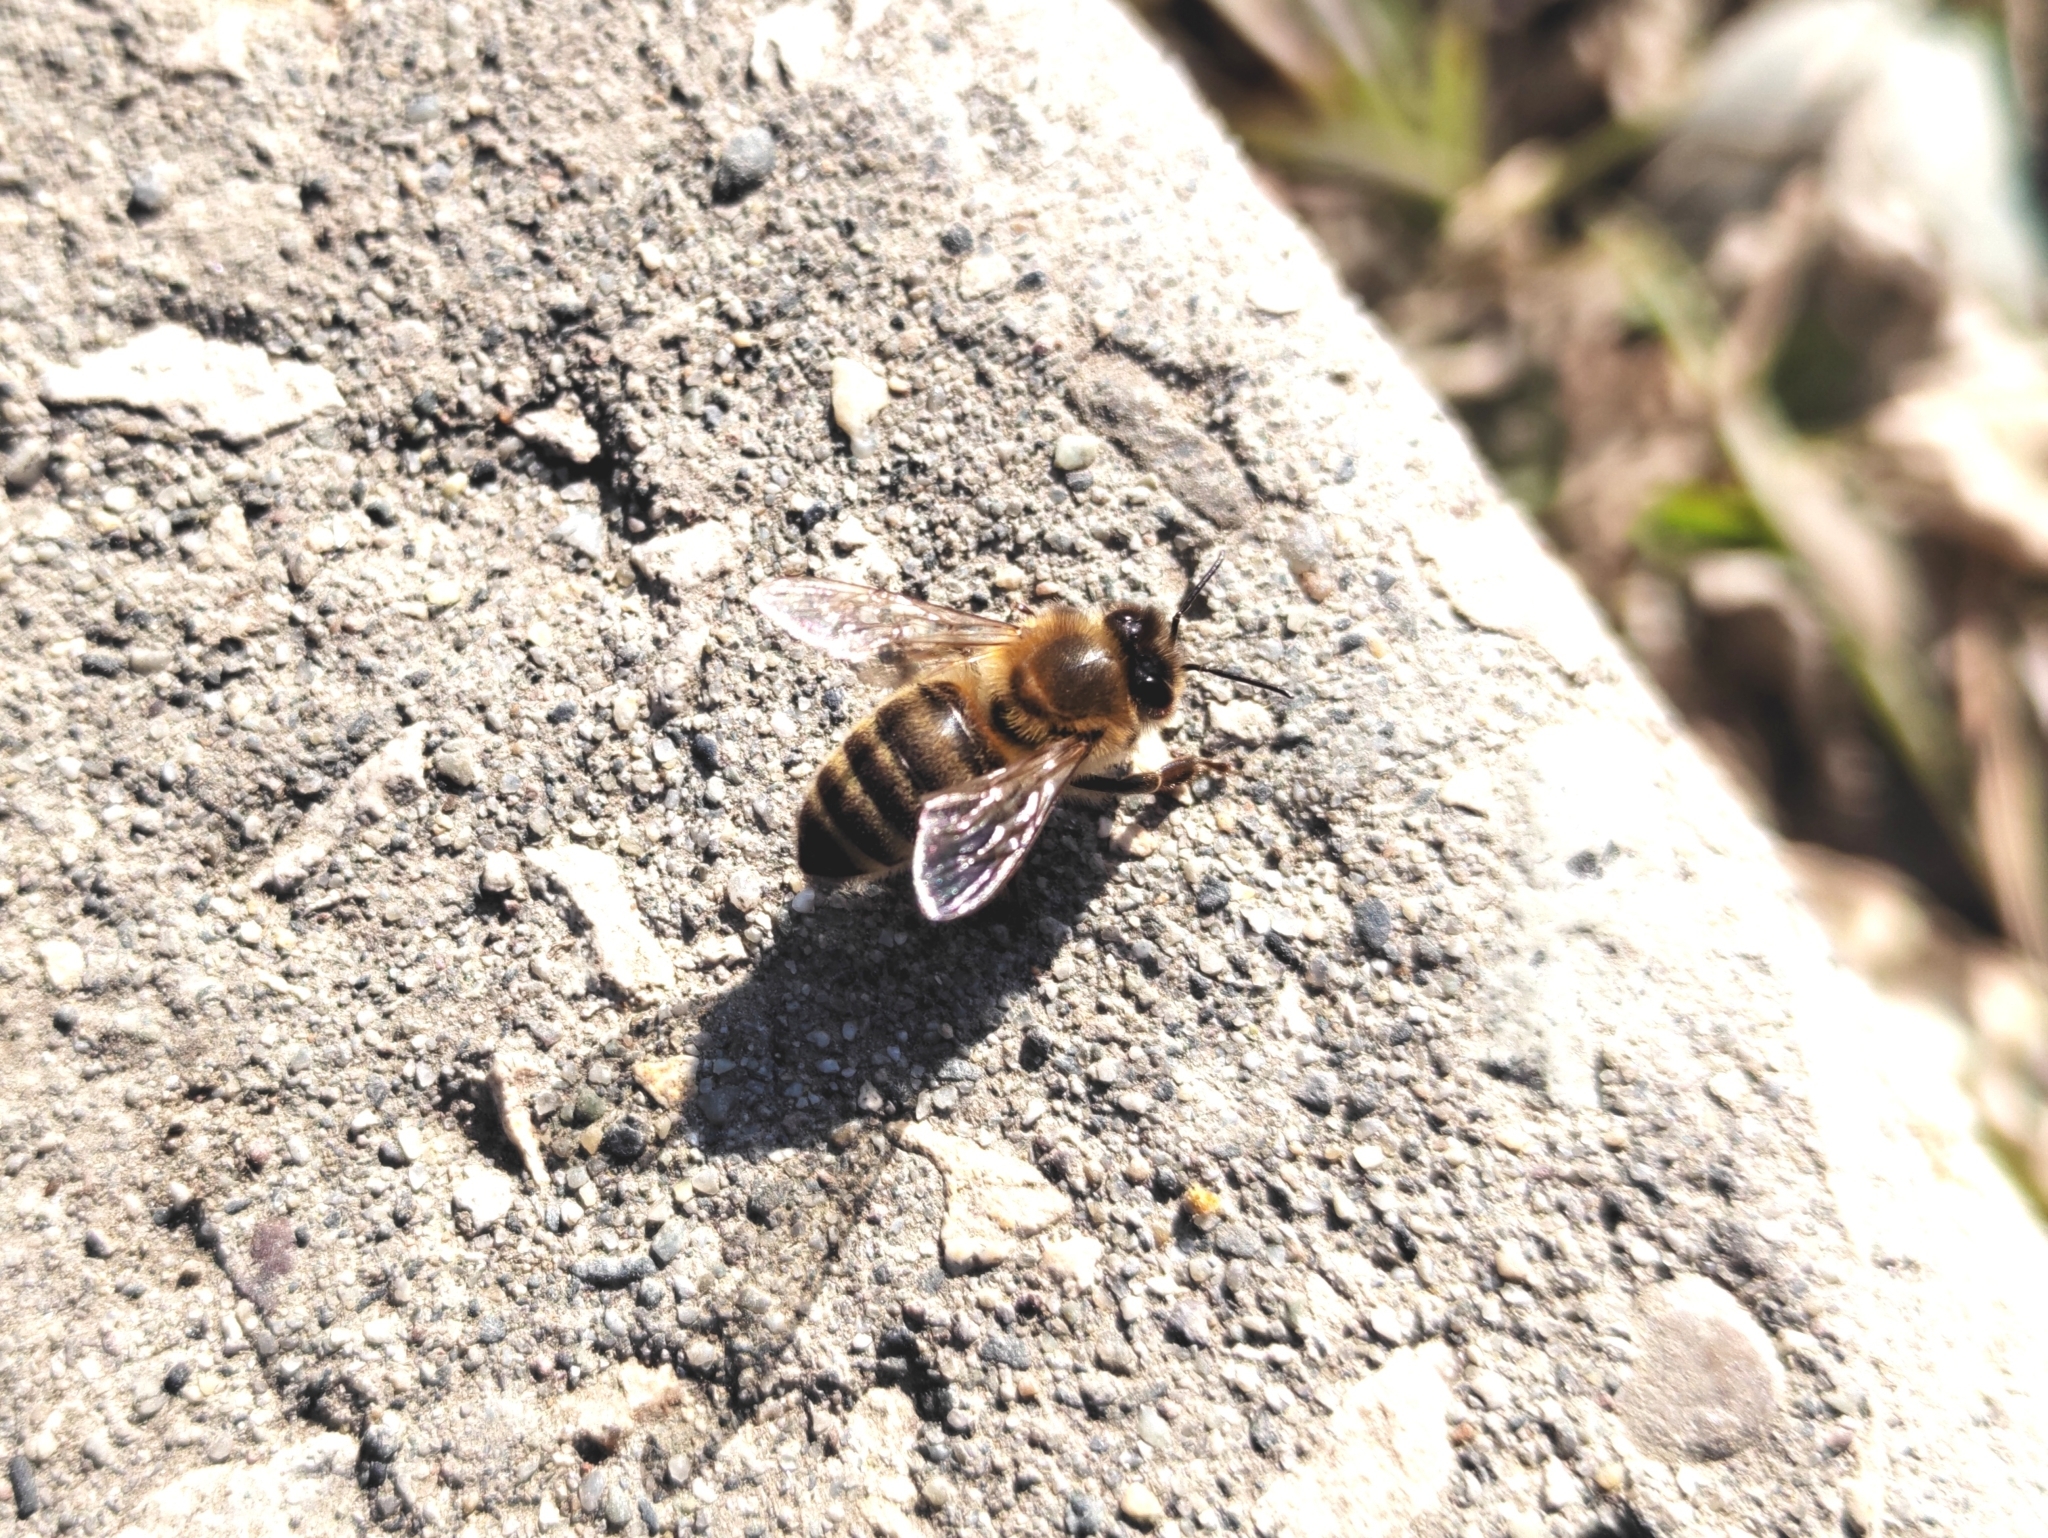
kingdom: Animalia
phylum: Arthropoda
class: Insecta
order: Hymenoptera
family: Apidae
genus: Apis
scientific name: Apis mellifera
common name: Honey bee
